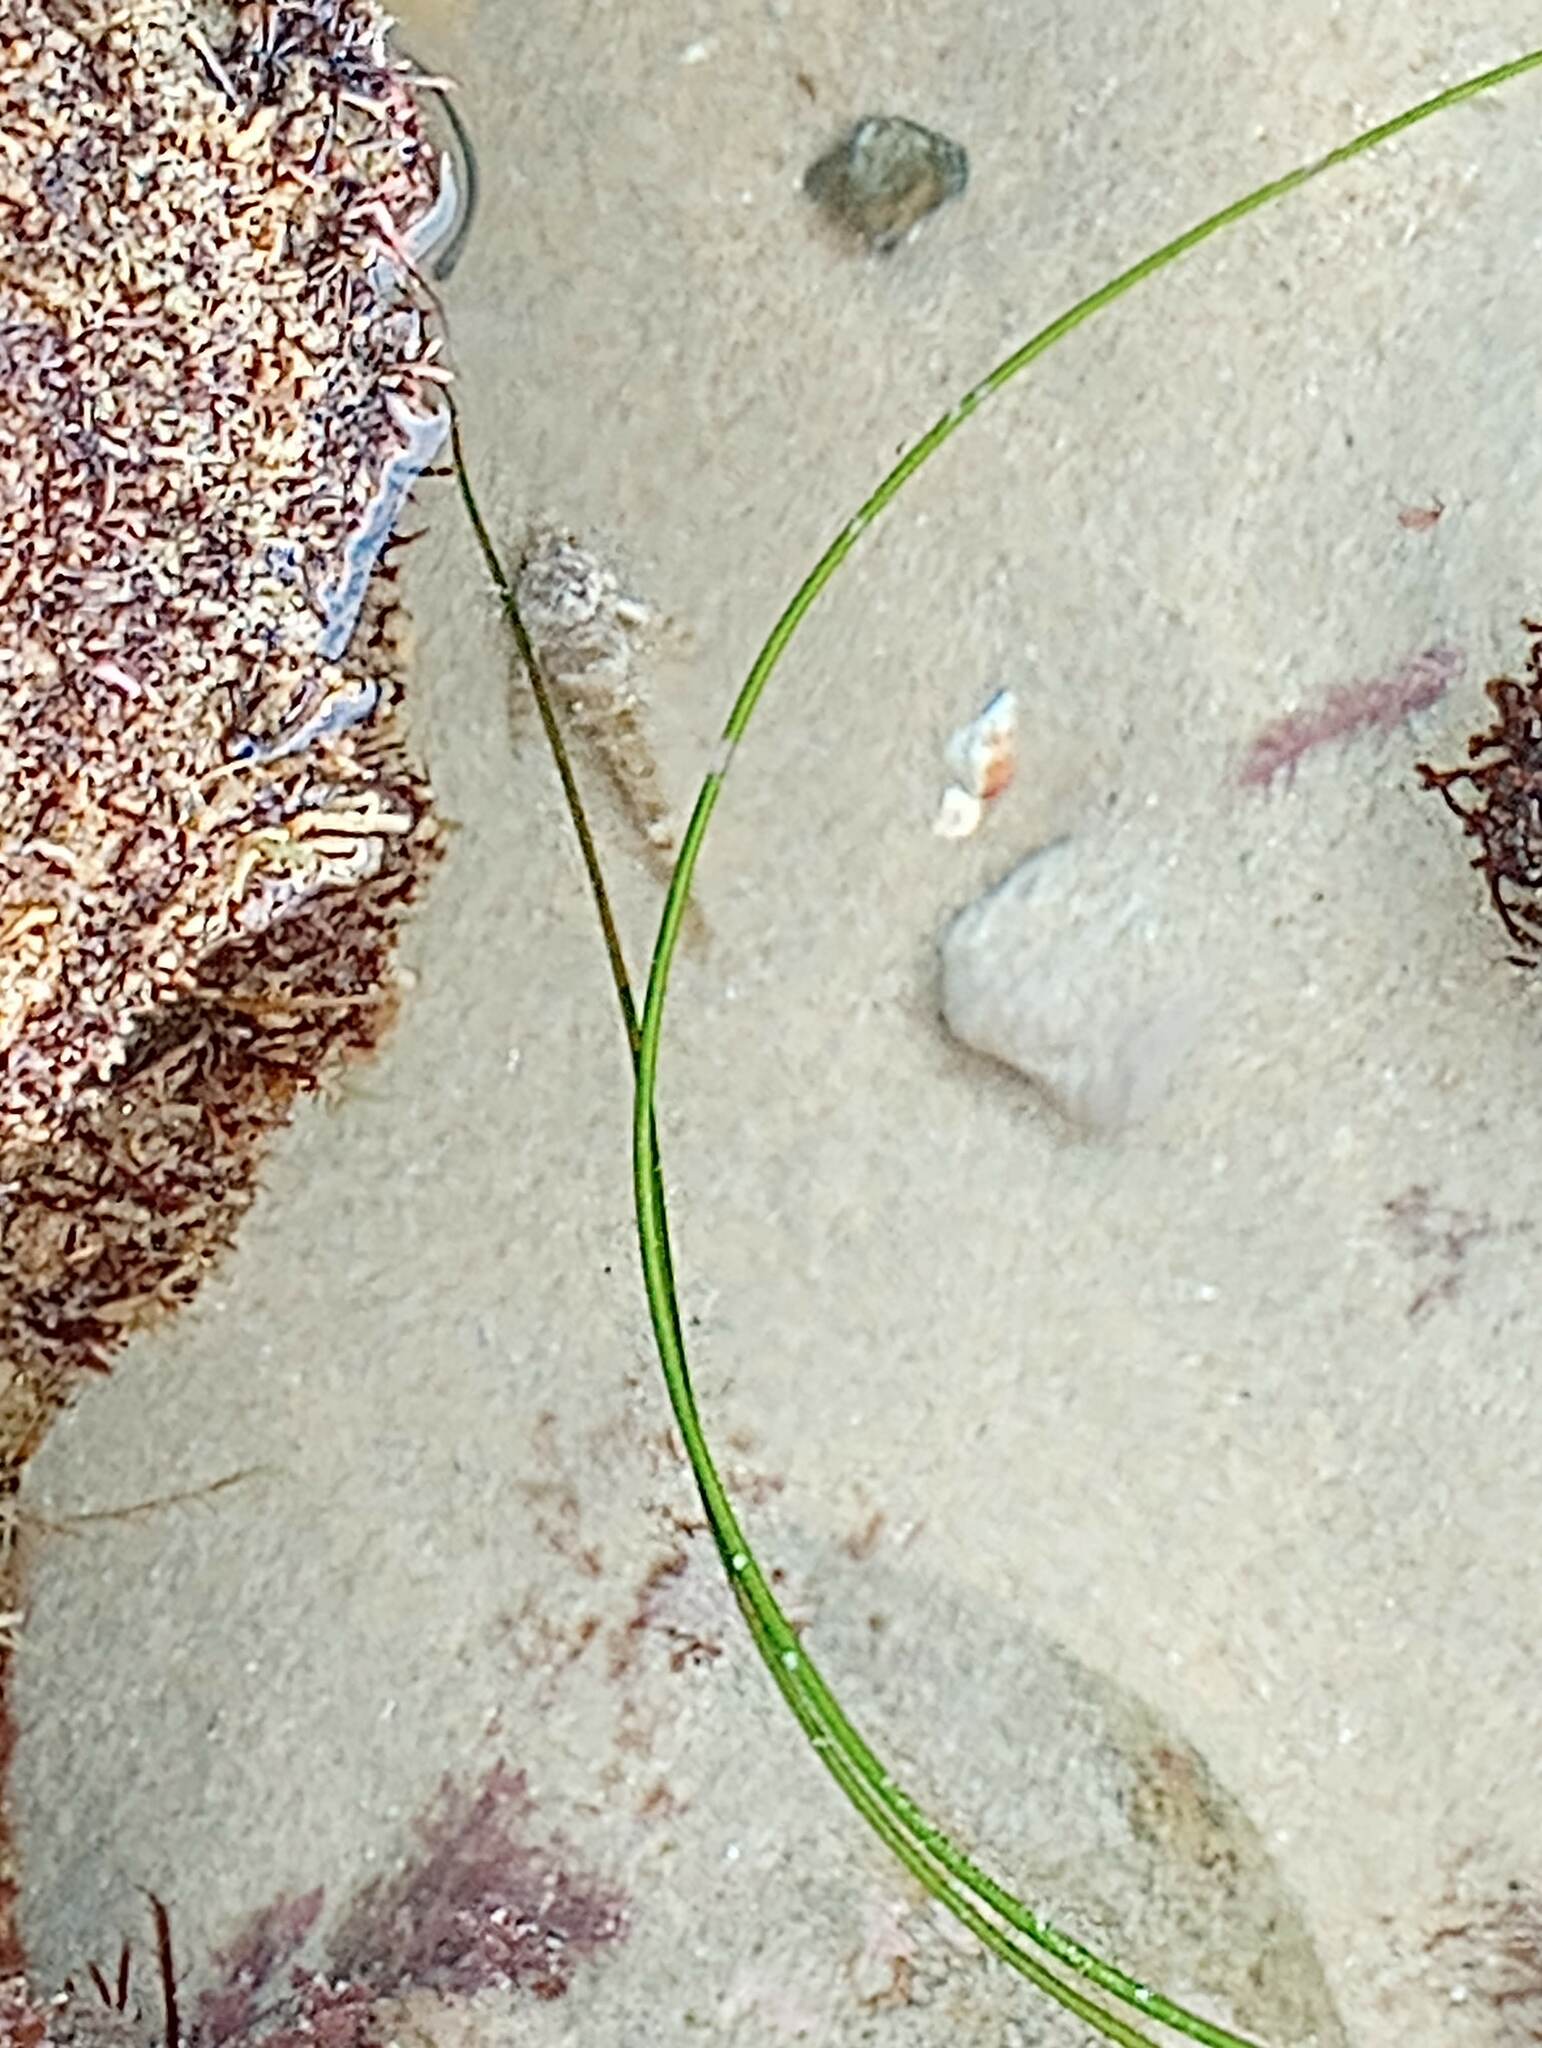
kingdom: Animalia
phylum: Chordata
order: Scorpaeniformes
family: Cottidae
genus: Clinocottus
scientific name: Clinocottus analis
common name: Woolly sculpin
